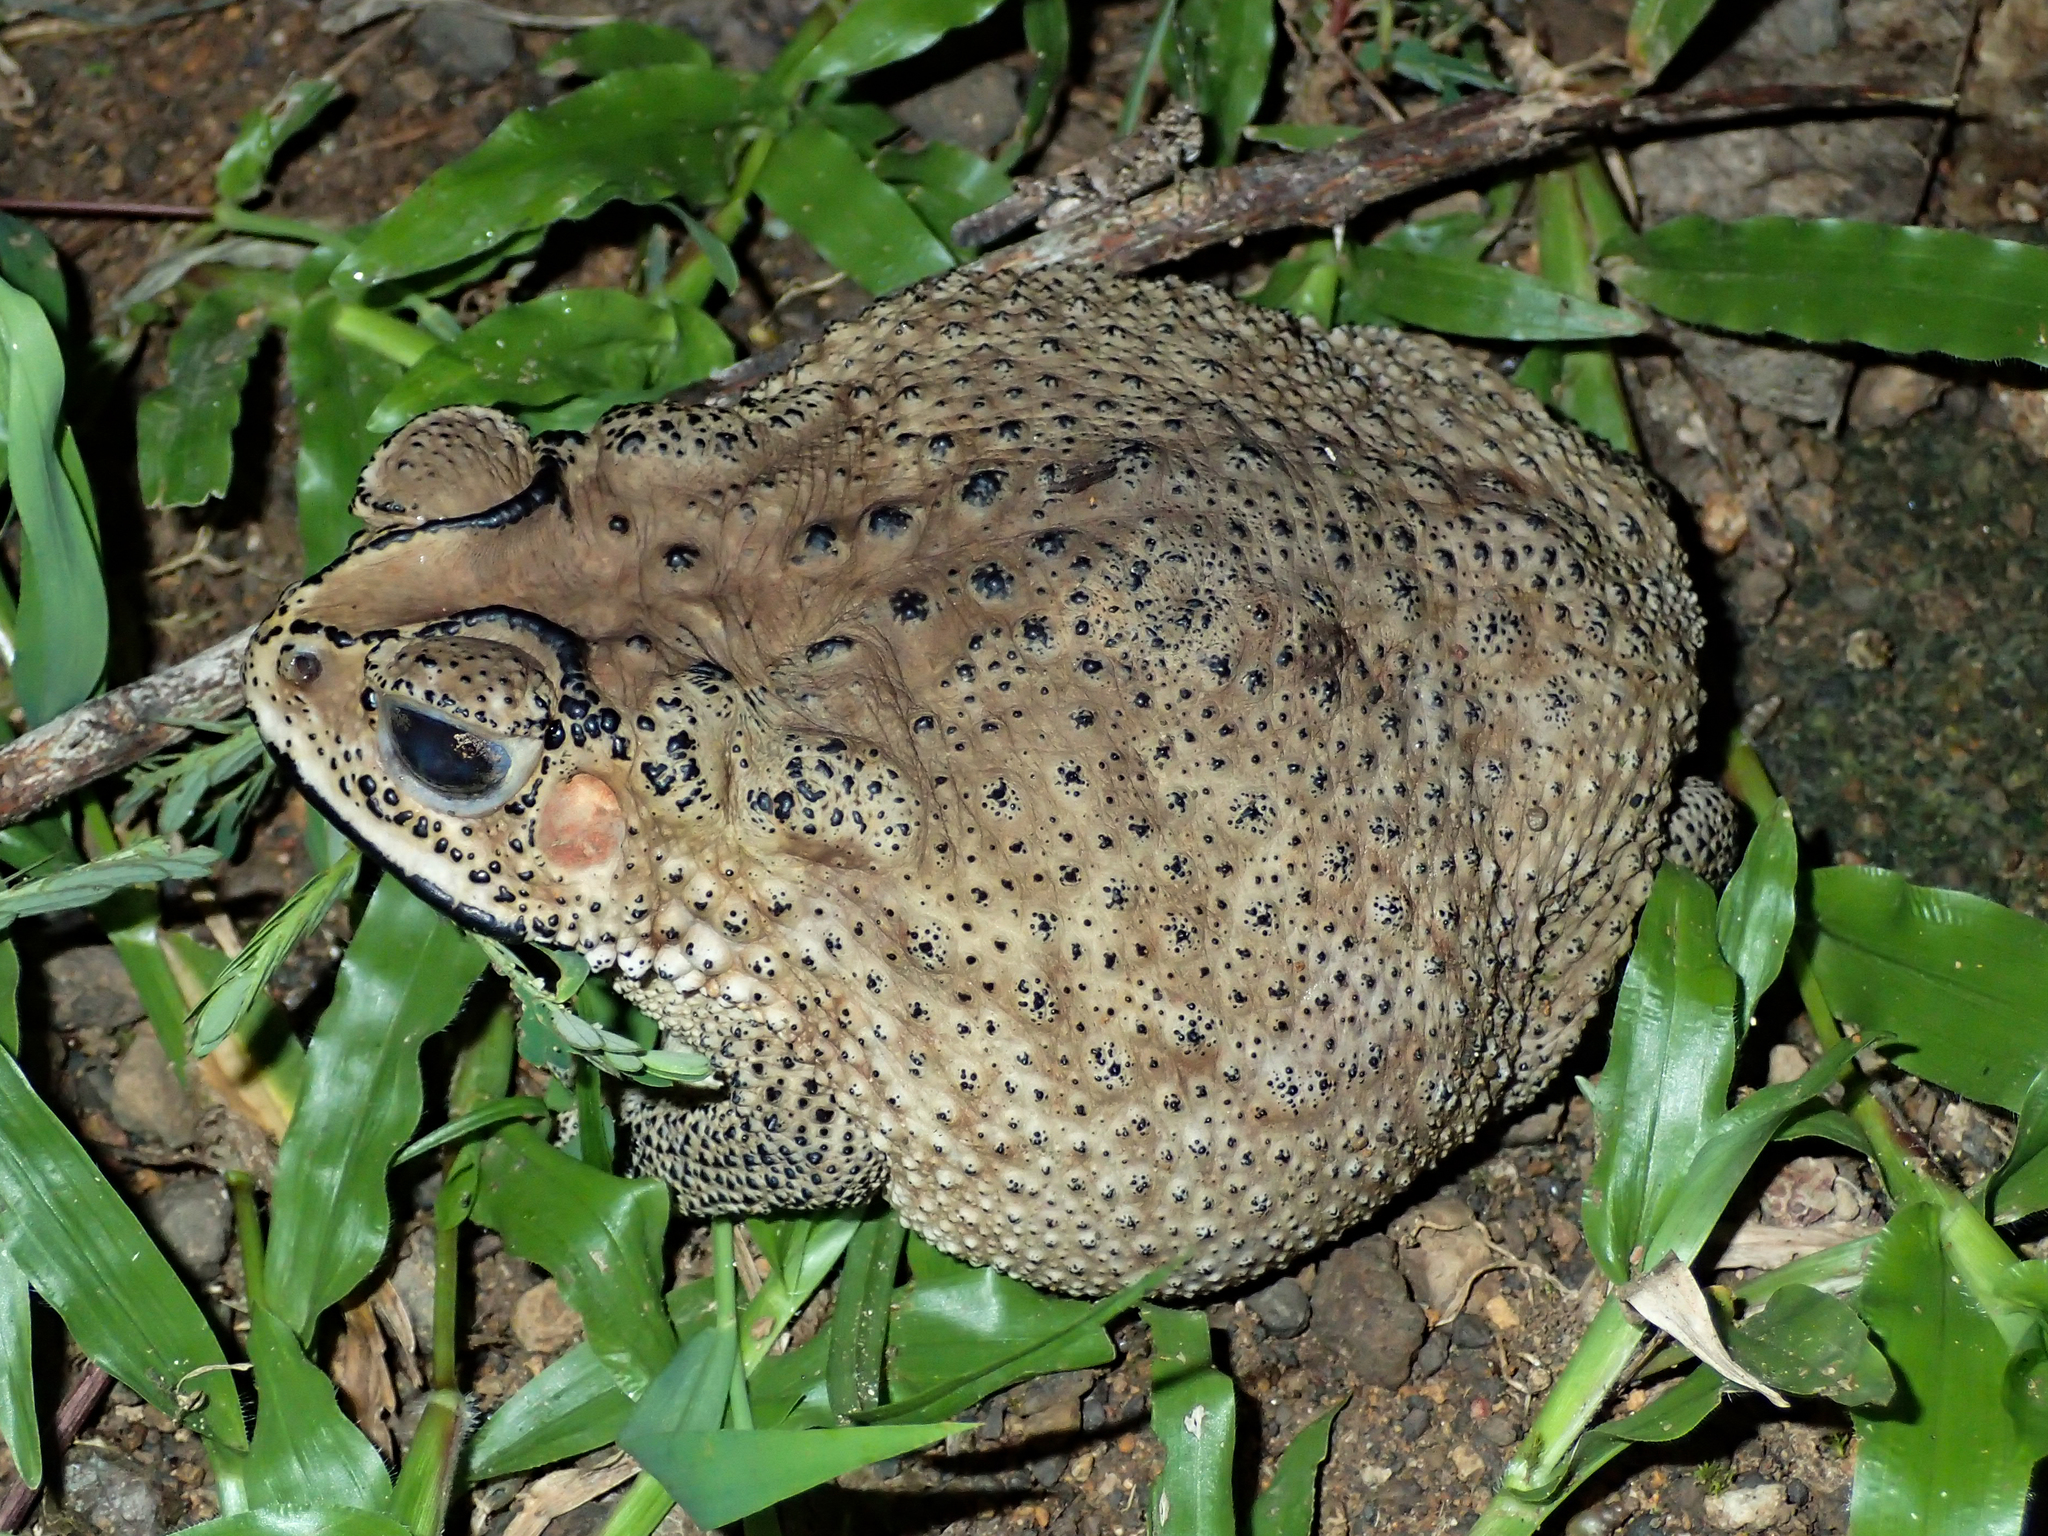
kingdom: Animalia
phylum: Chordata
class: Amphibia
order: Anura
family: Bufonidae
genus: Duttaphrynus
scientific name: Duttaphrynus melanostictus
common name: Common sunda toad
